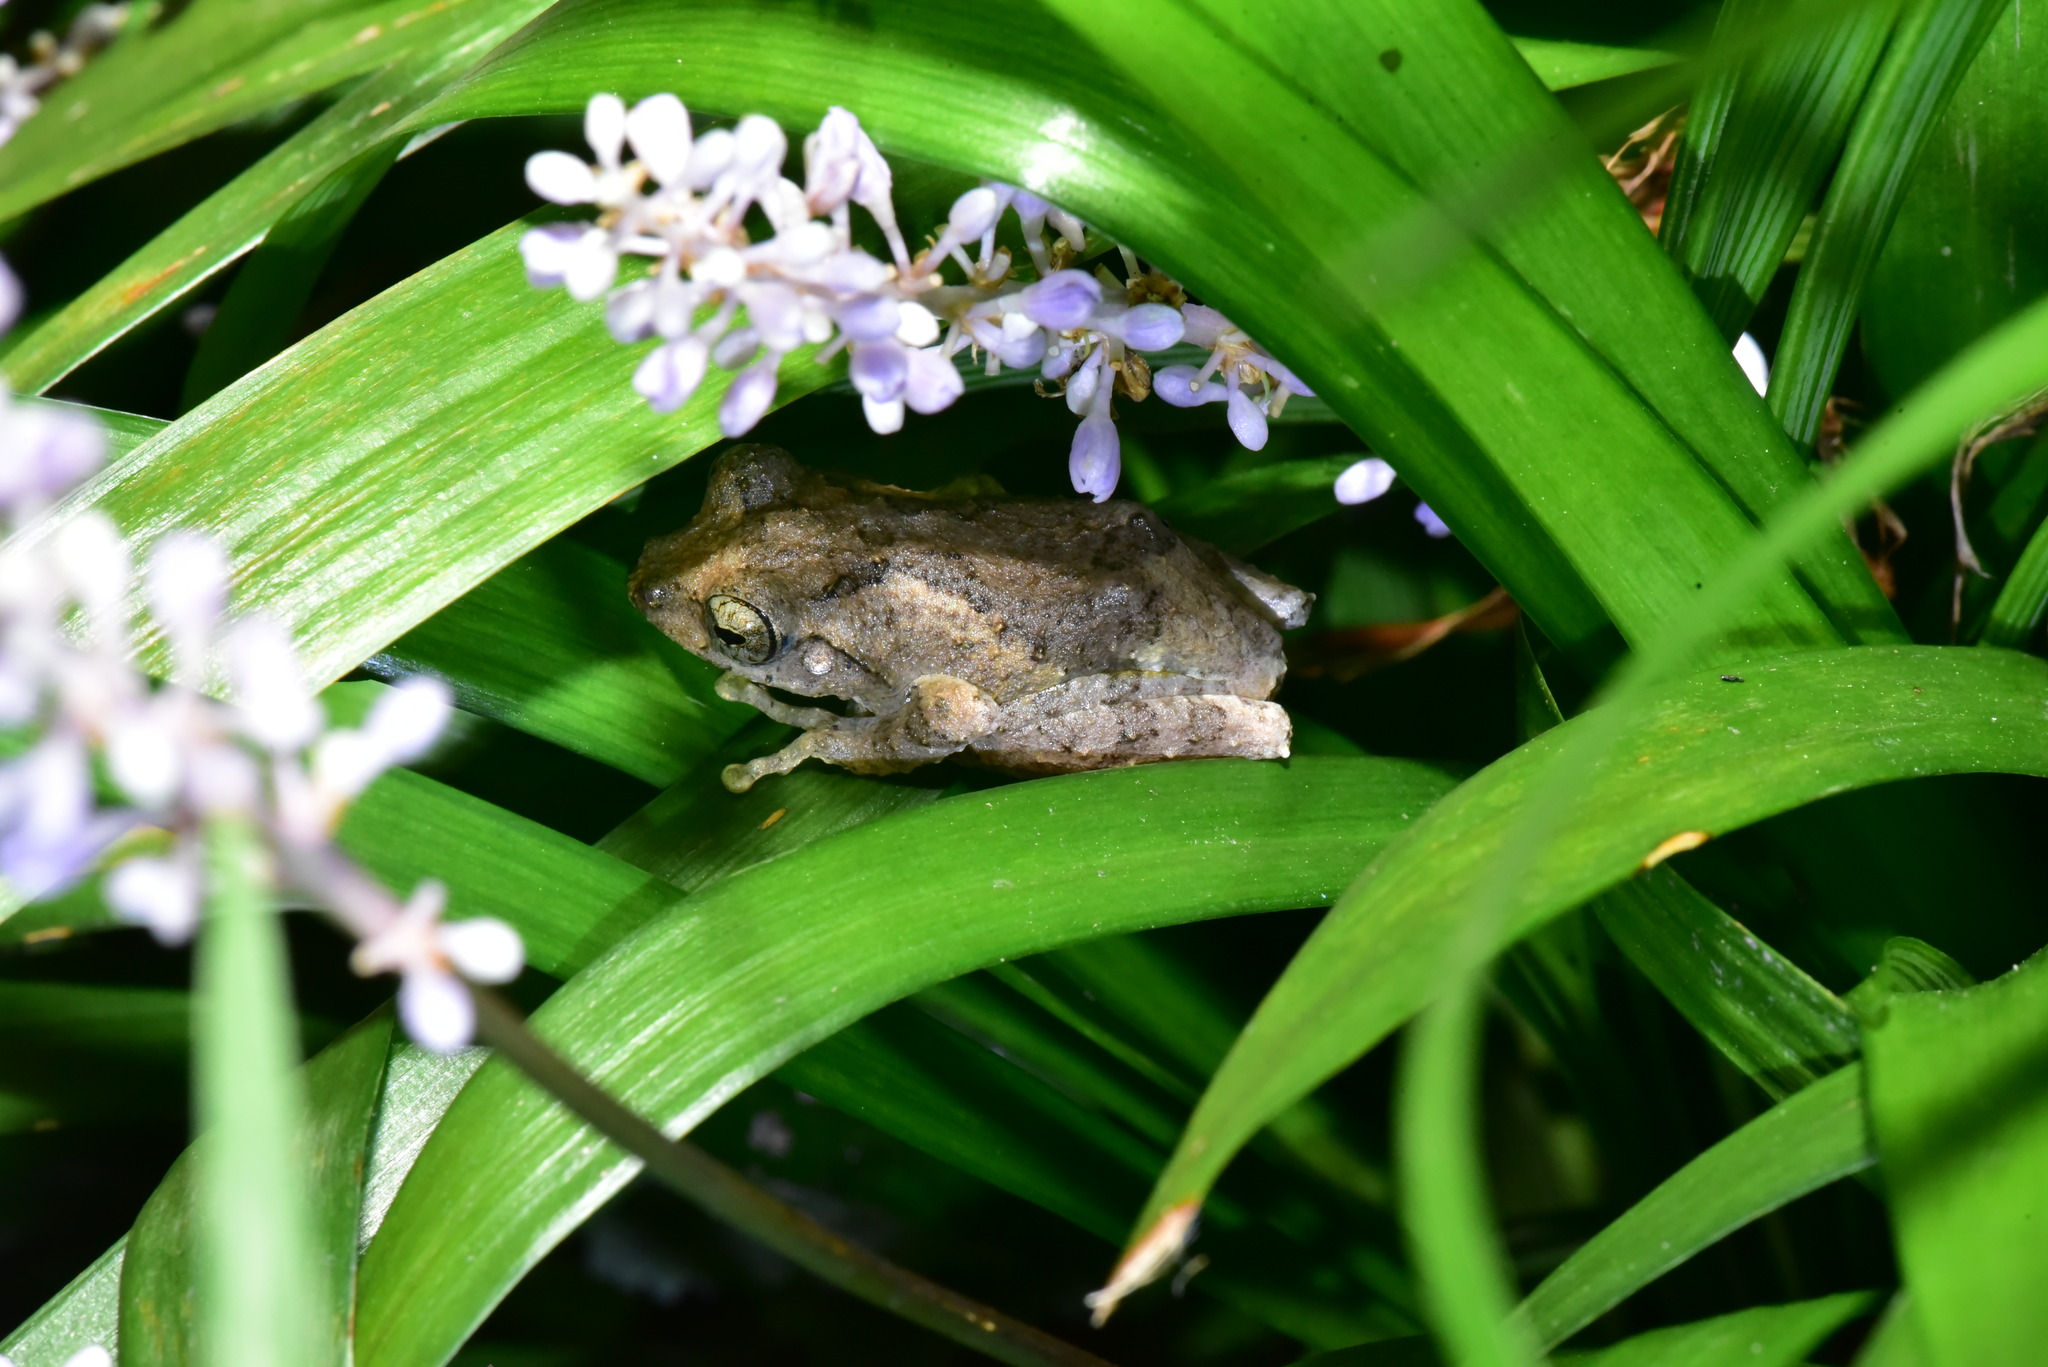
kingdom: Animalia
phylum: Chordata
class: Amphibia
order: Anura
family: Rhacophoridae
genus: Kurixalus
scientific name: Kurixalus idiootocus
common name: Temple treefrog
